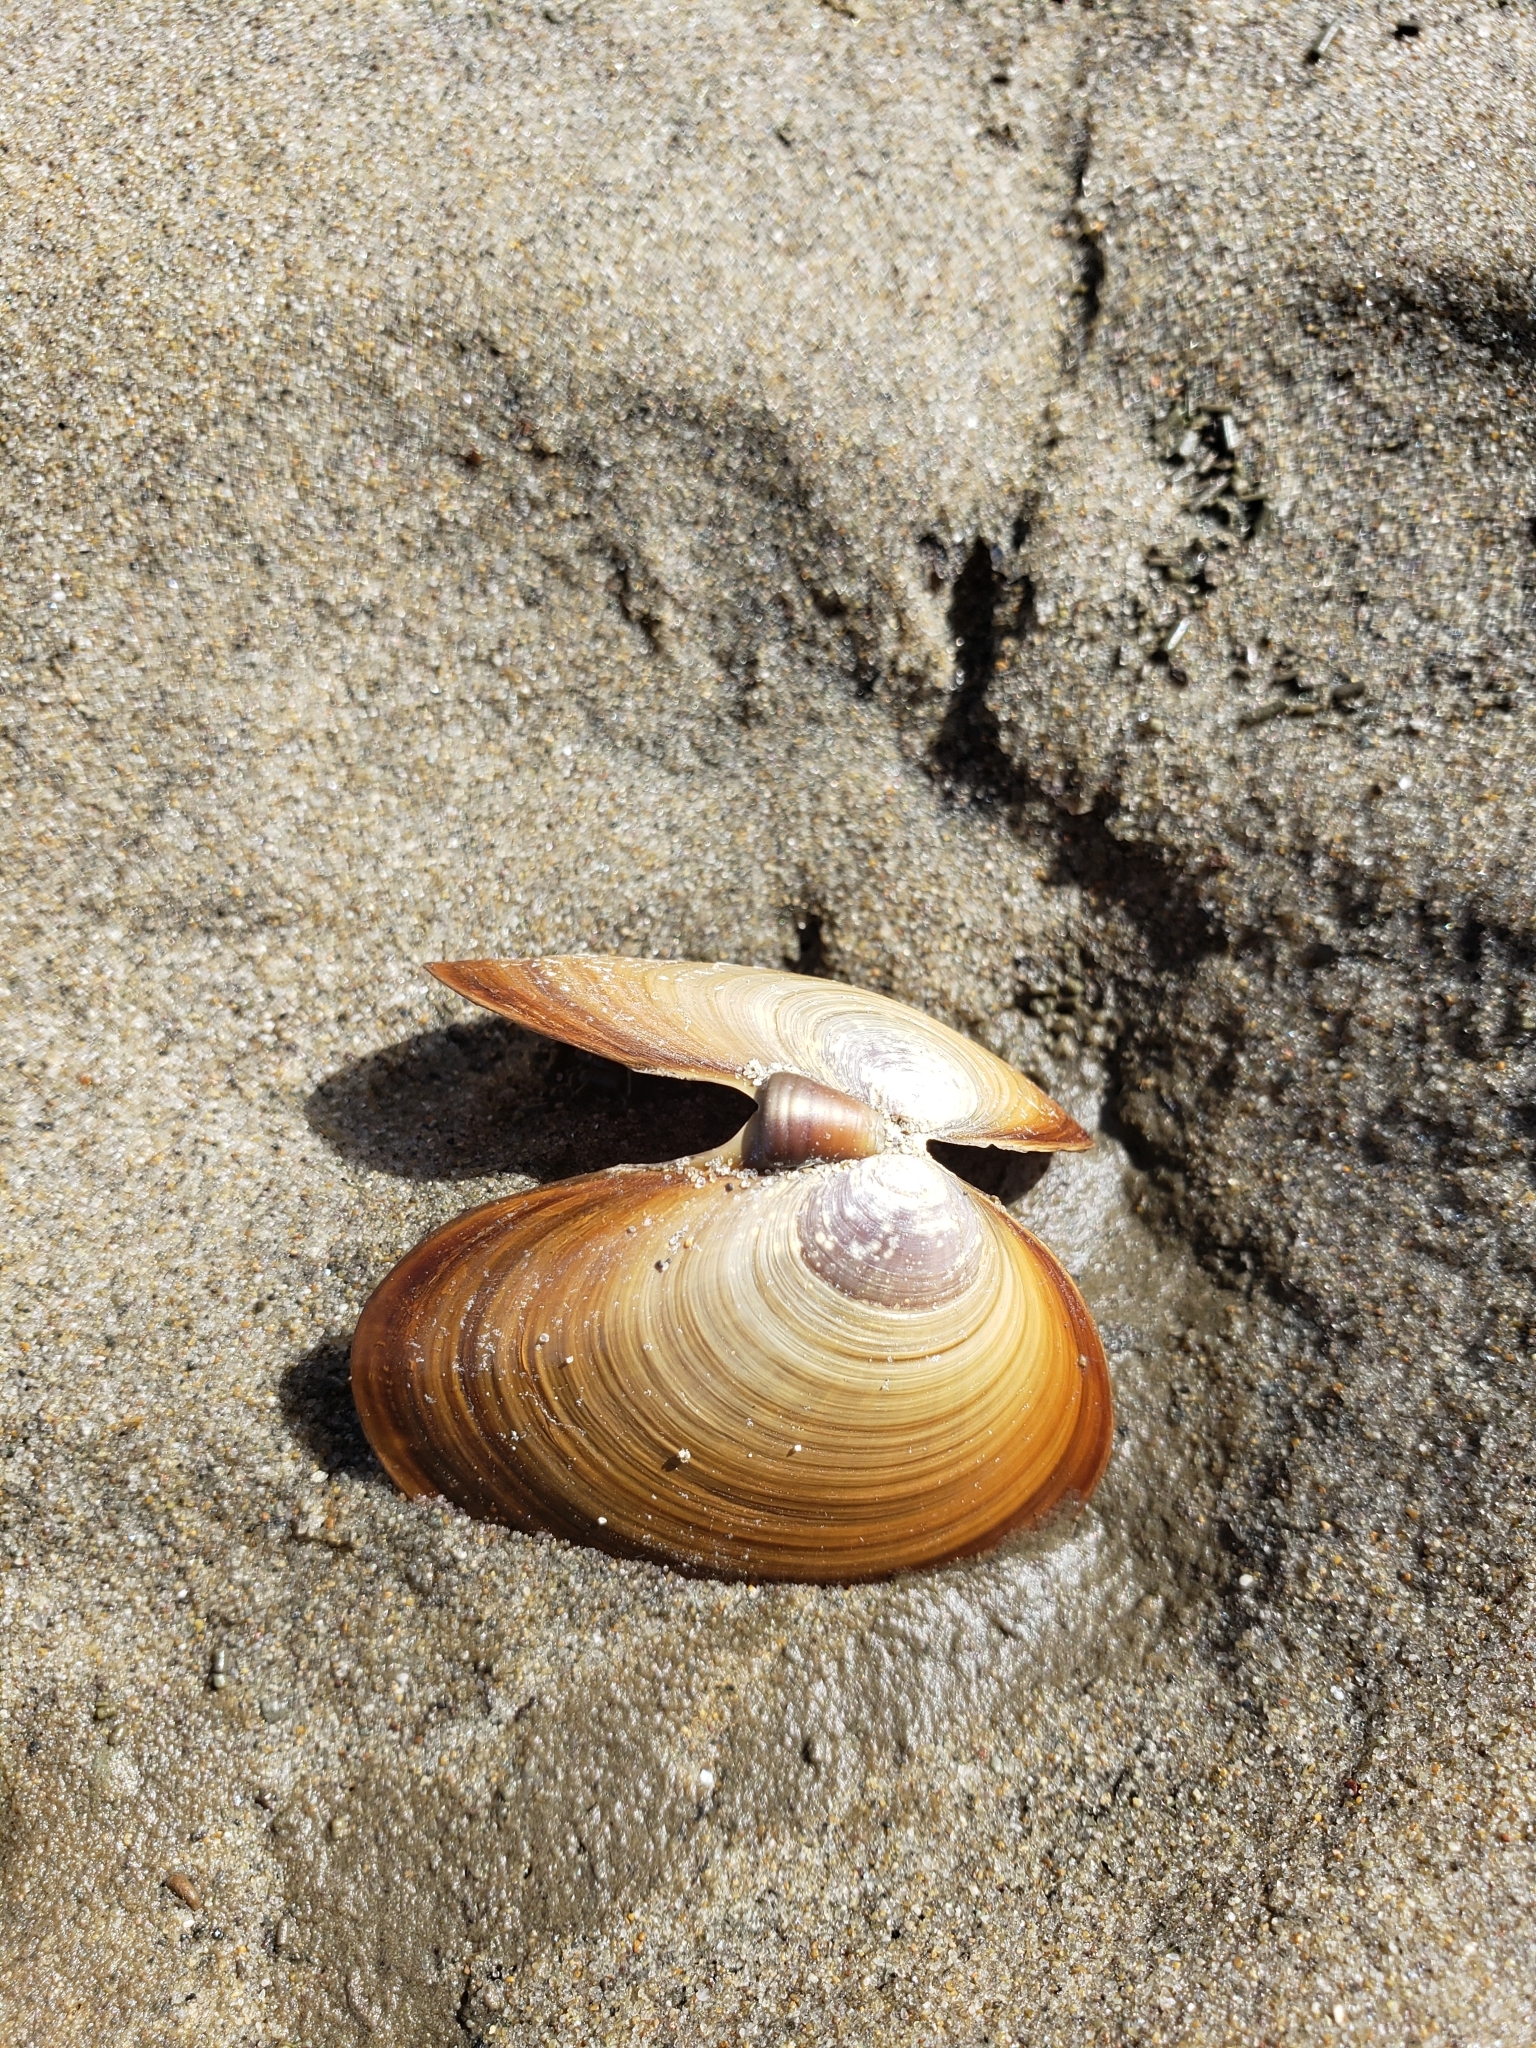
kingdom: Animalia
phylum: Mollusca
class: Bivalvia
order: Cardiida
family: Psammobiidae
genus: Nuttallia
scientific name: Nuttallia obscurata
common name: Purple mahogany-clam
